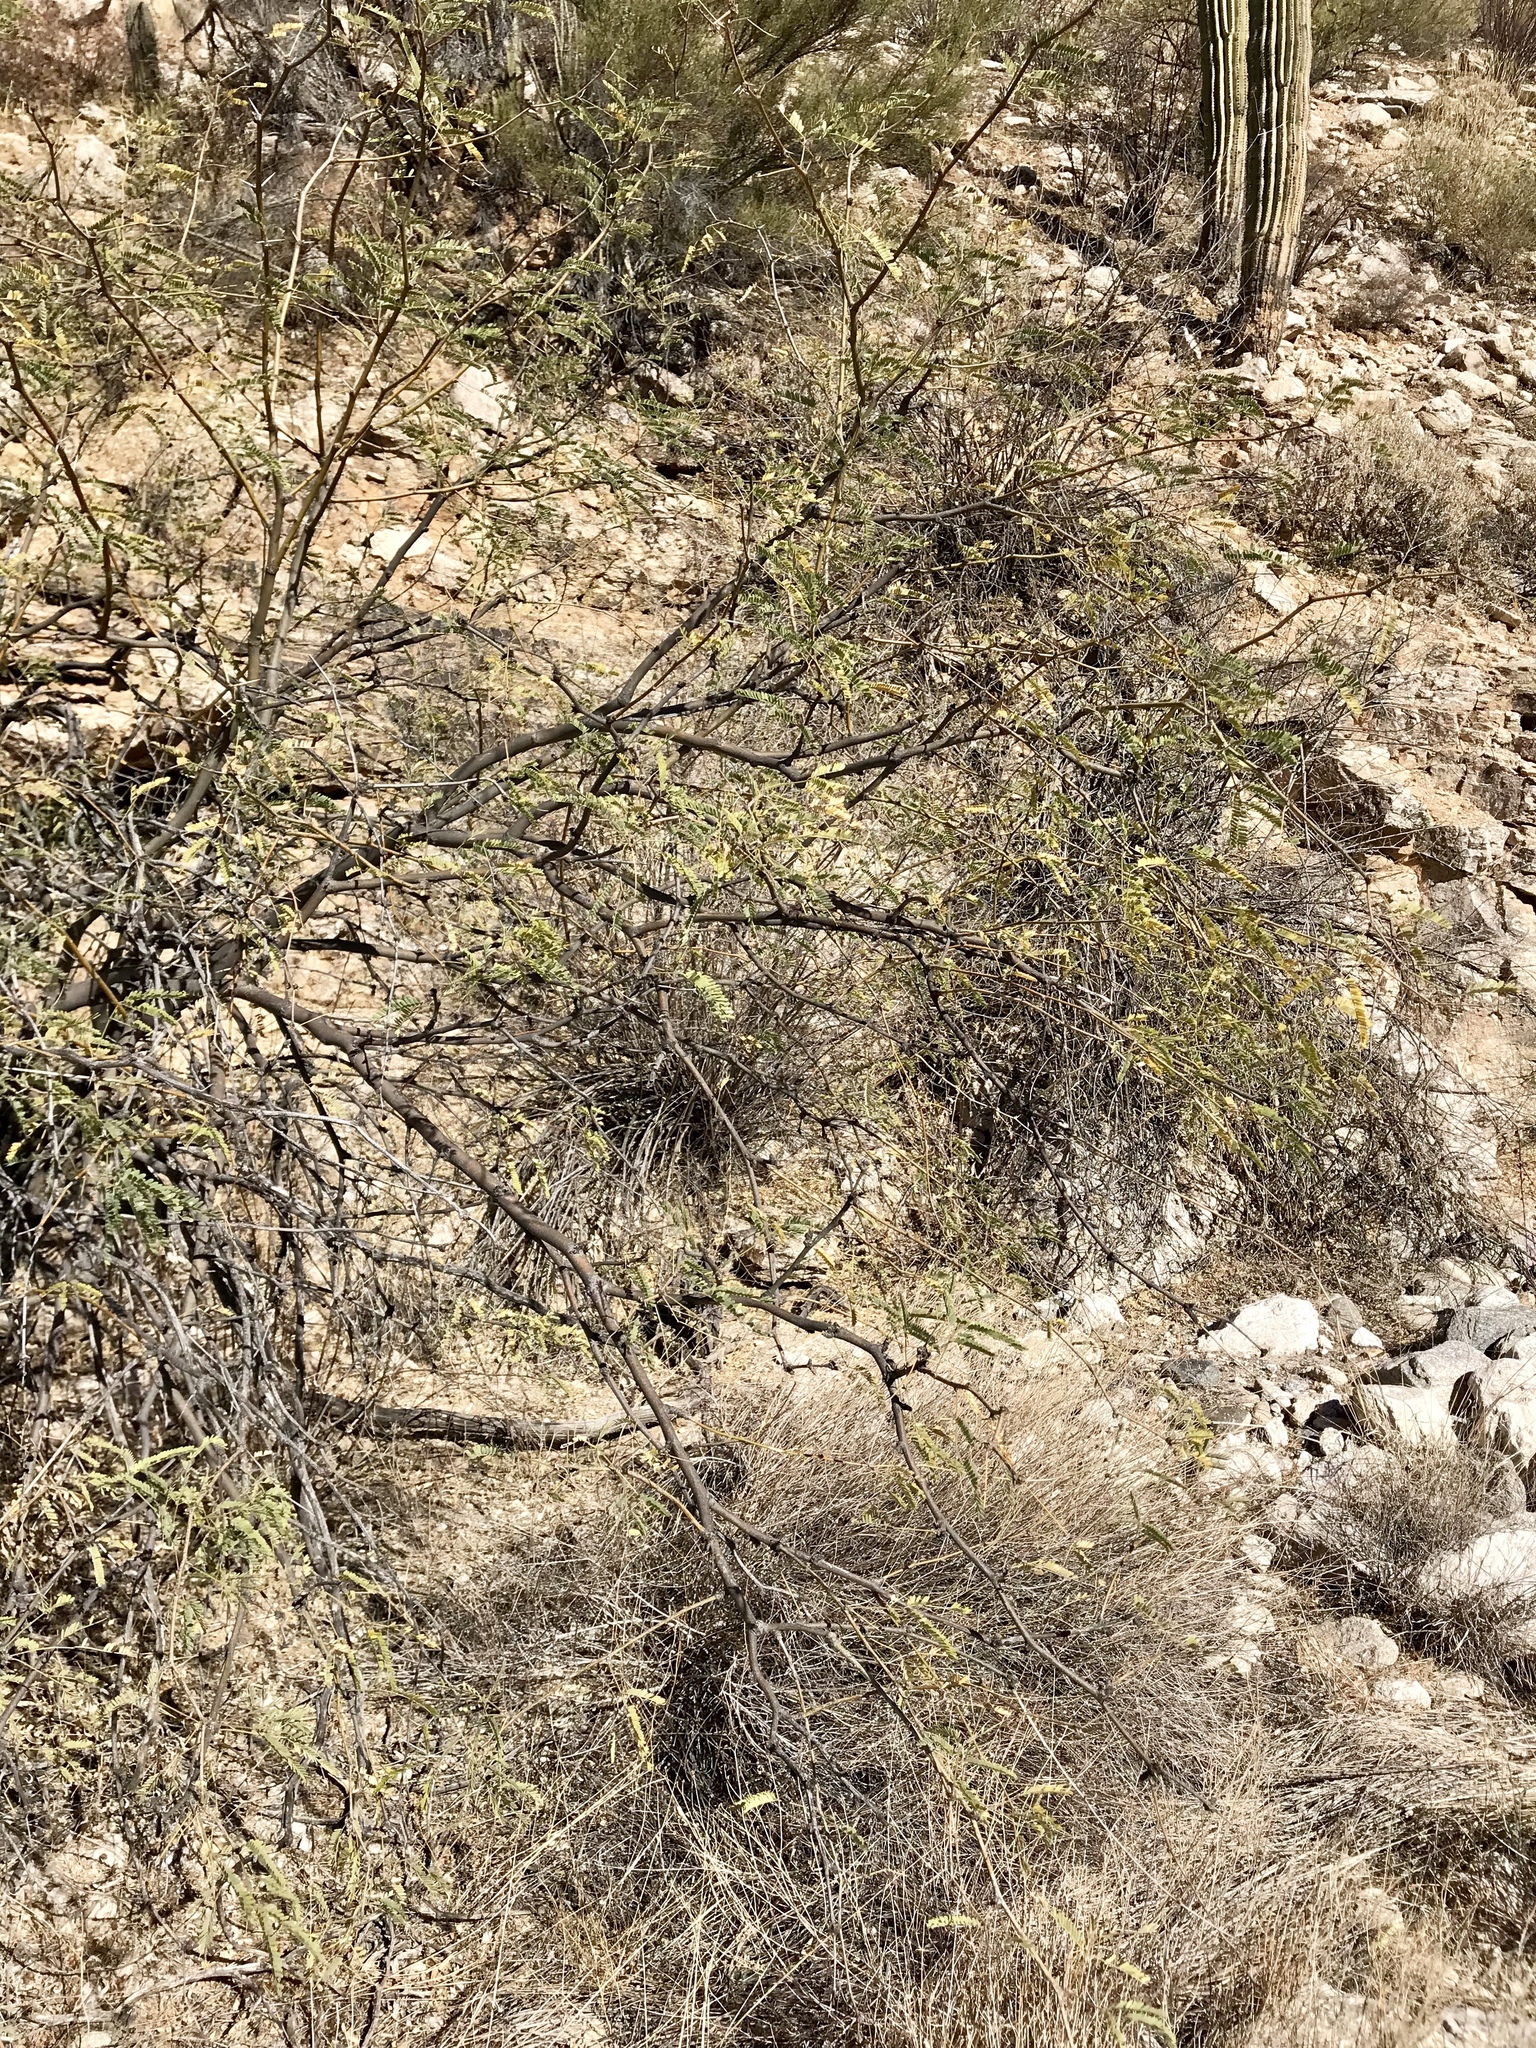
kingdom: Plantae
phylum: Tracheophyta
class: Magnoliopsida
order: Fabales
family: Fabaceae
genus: Prosopis
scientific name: Prosopis velutina
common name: Velvet mesquite
